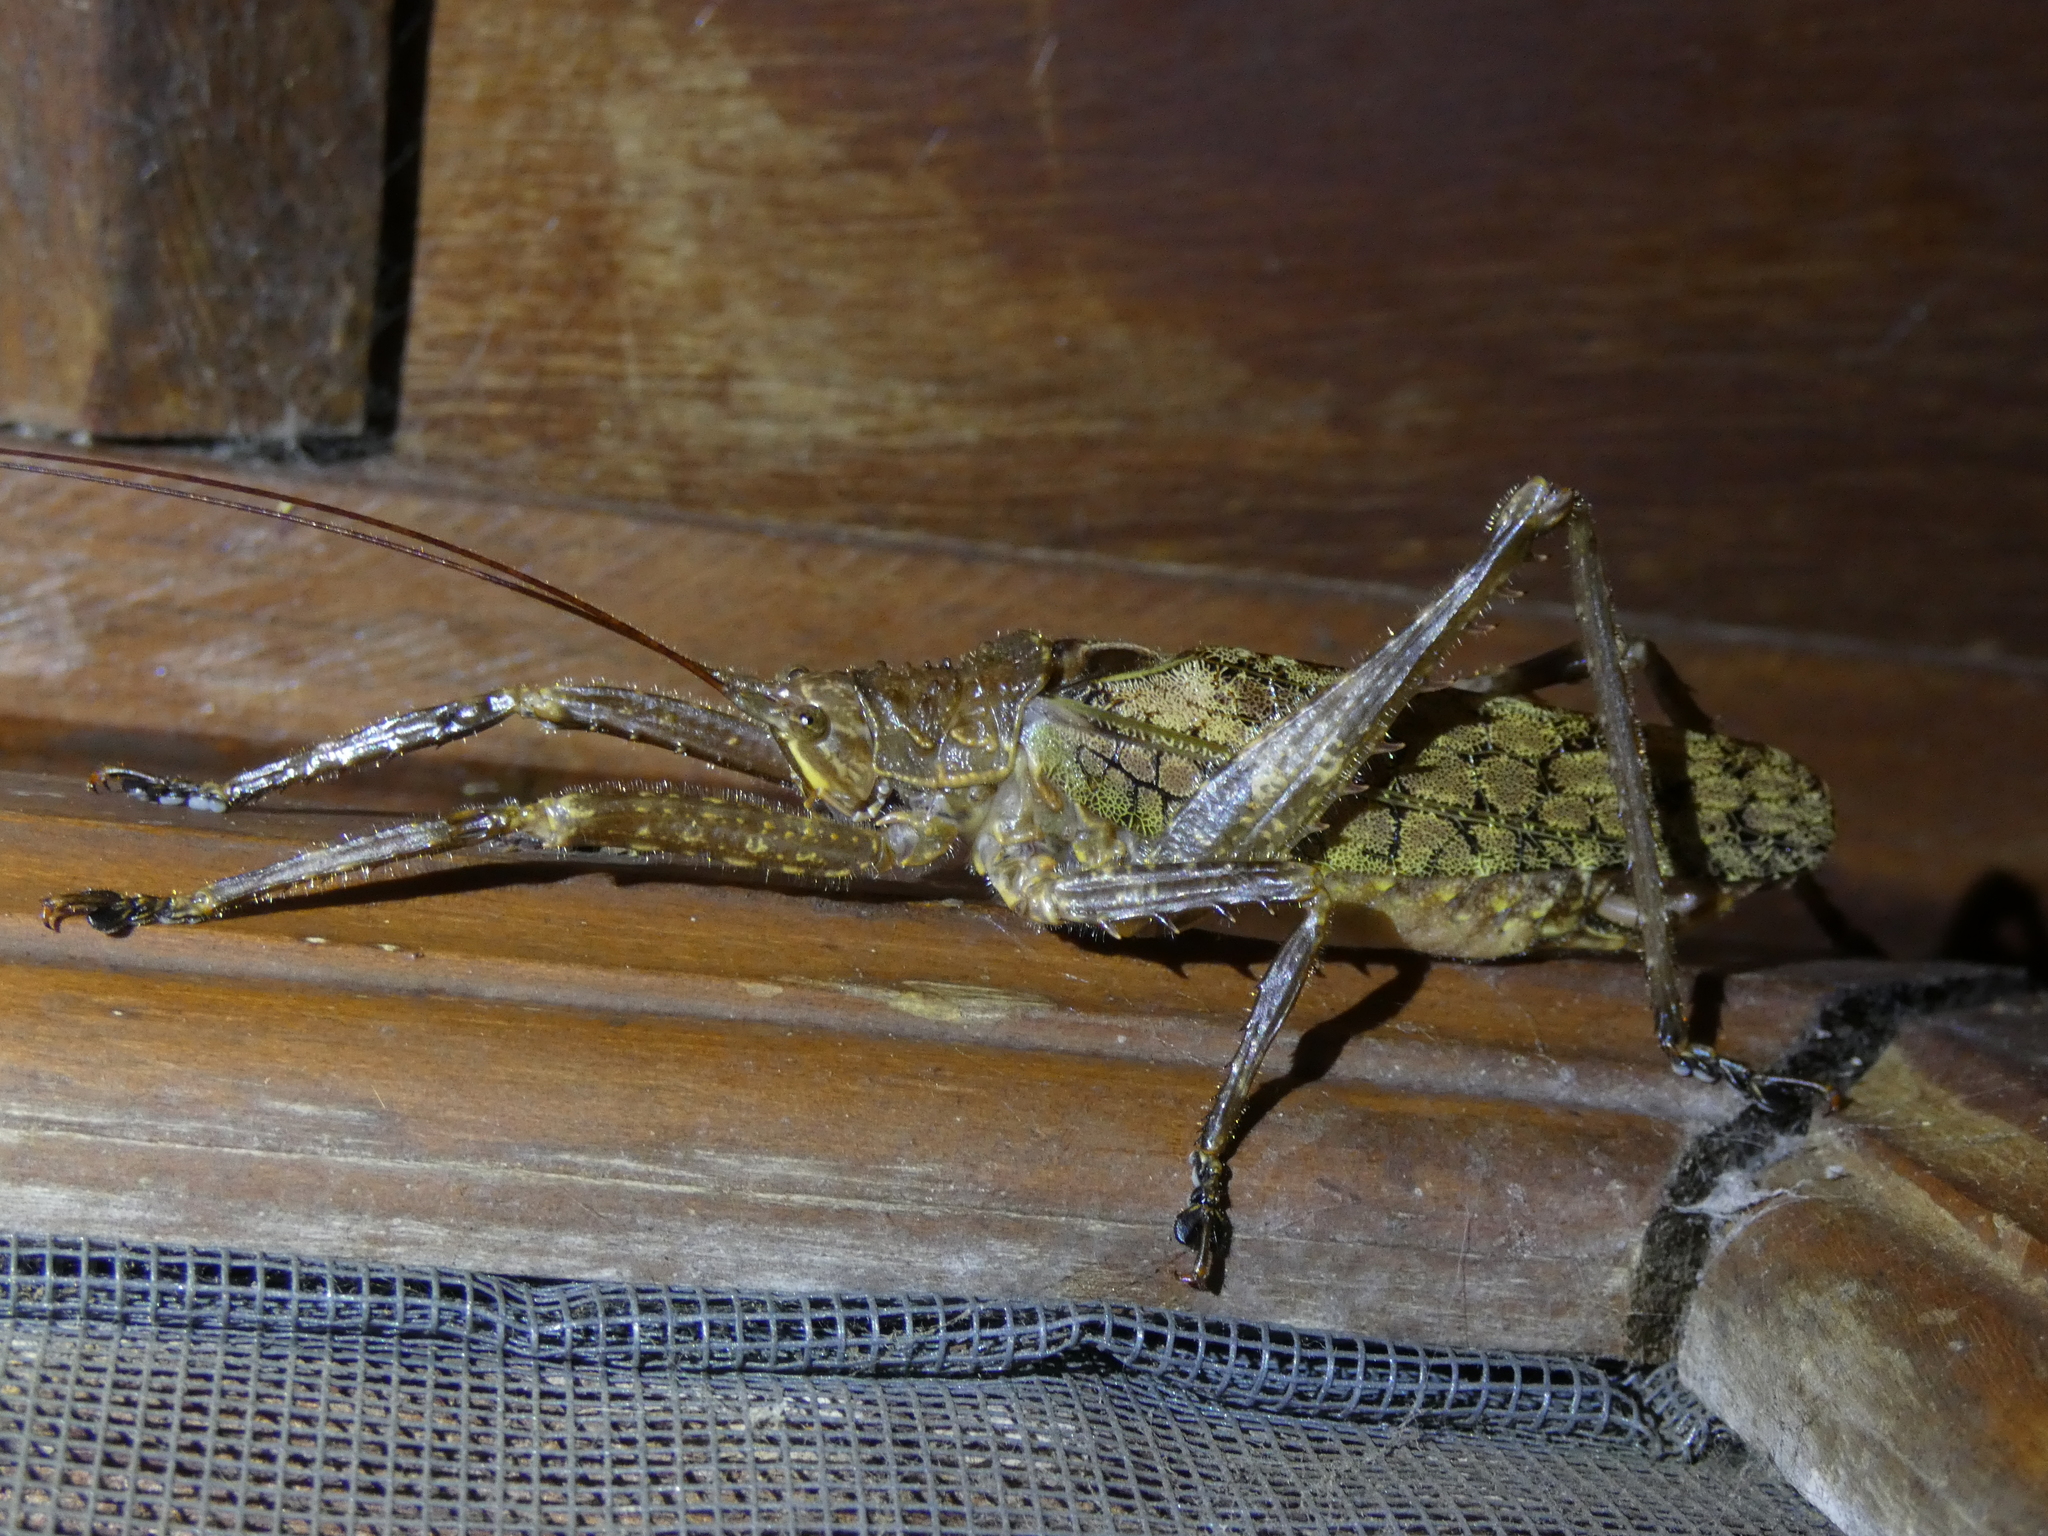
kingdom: Animalia
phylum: Arthropoda
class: Insecta
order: Orthoptera
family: Tettigoniidae
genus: Pristonotus
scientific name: Pristonotus tuberosus
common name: Katydid
